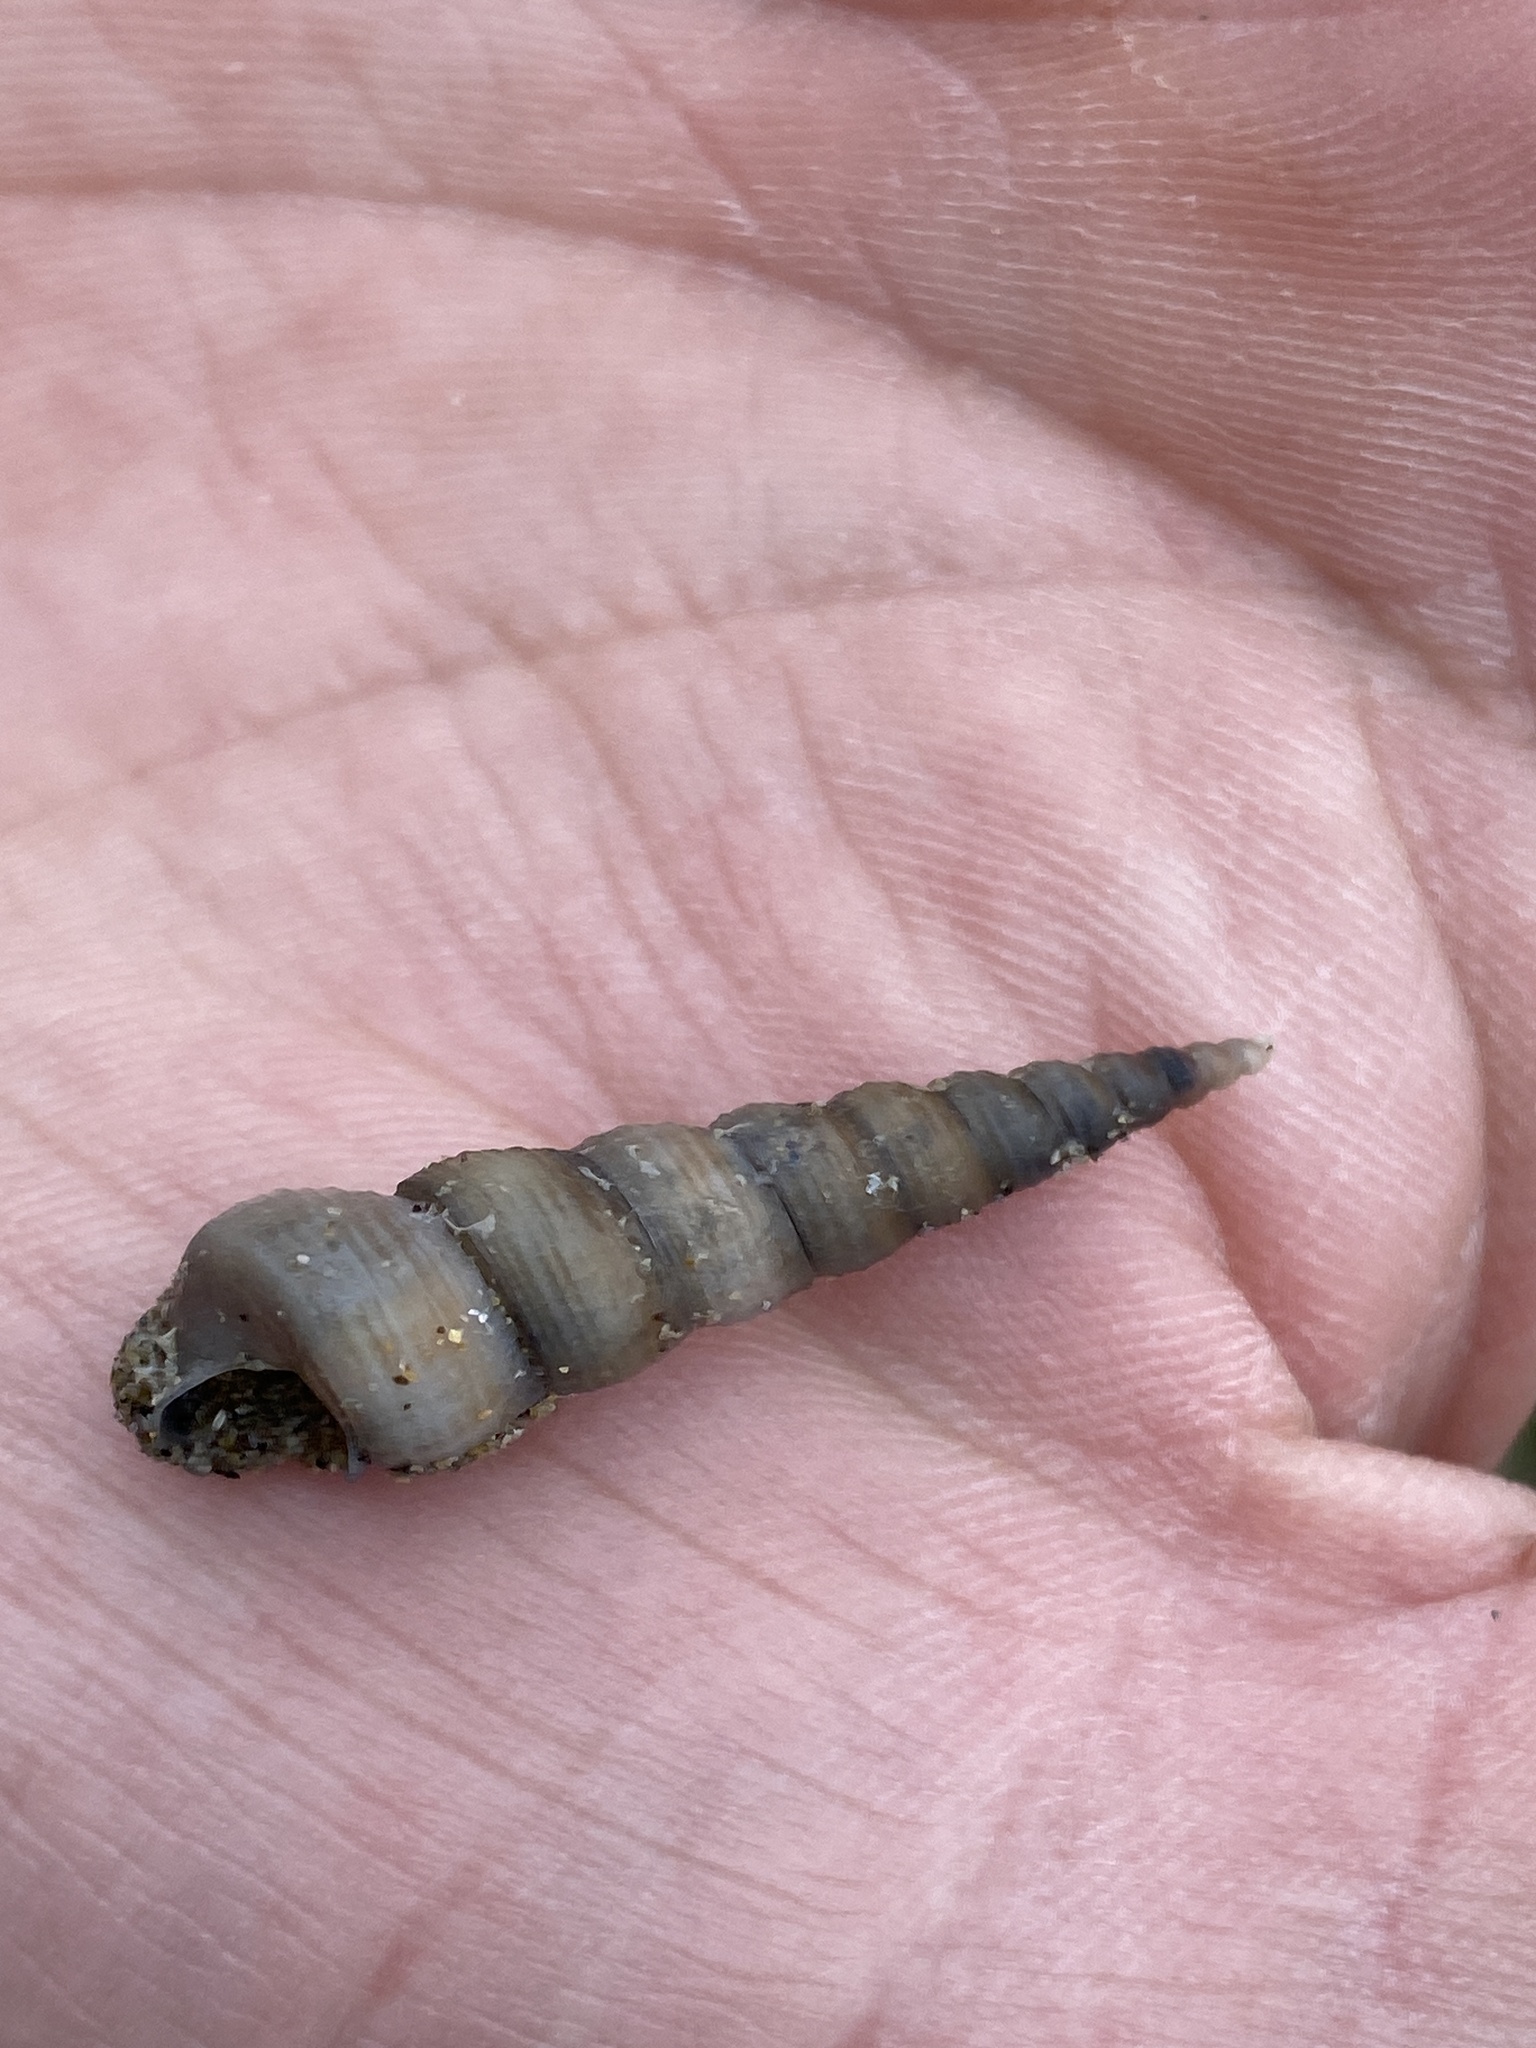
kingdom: Animalia
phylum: Mollusca
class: Gastropoda
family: Turritellidae
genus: Turritellinella
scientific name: Turritellinella tricarinata
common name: Auger shell
